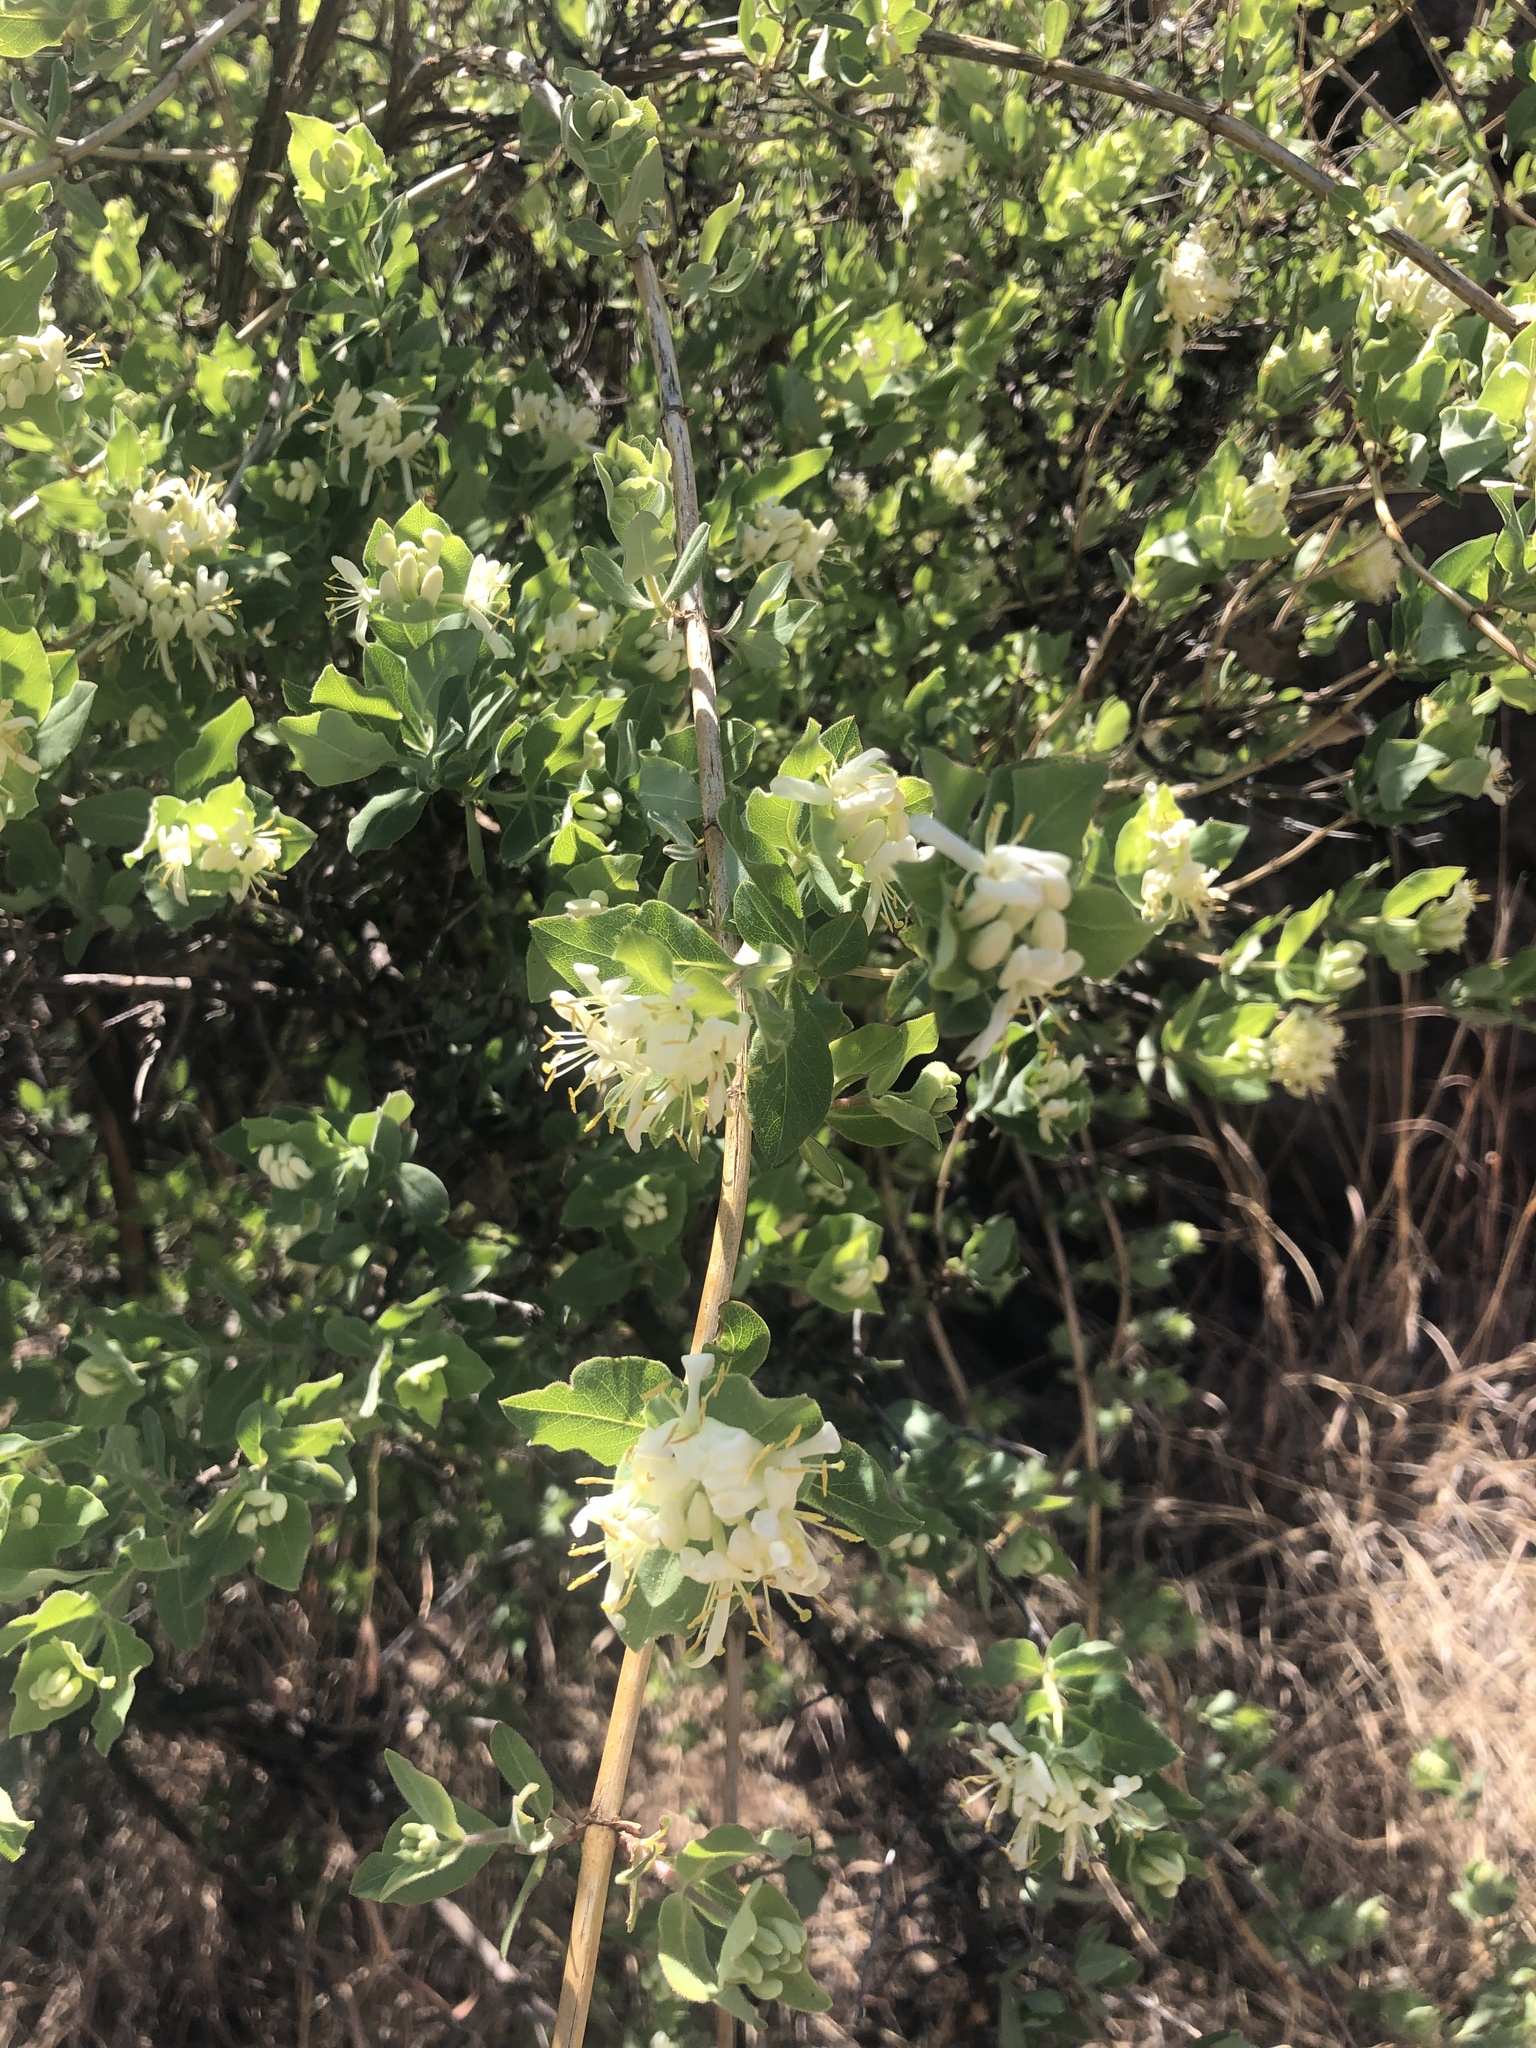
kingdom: Plantae
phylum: Tracheophyta
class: Magnoliopsida
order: Dipsacales
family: Caprifoliaceae
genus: Lonicera
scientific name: Lonicera albiflora
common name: White honeysuckle
